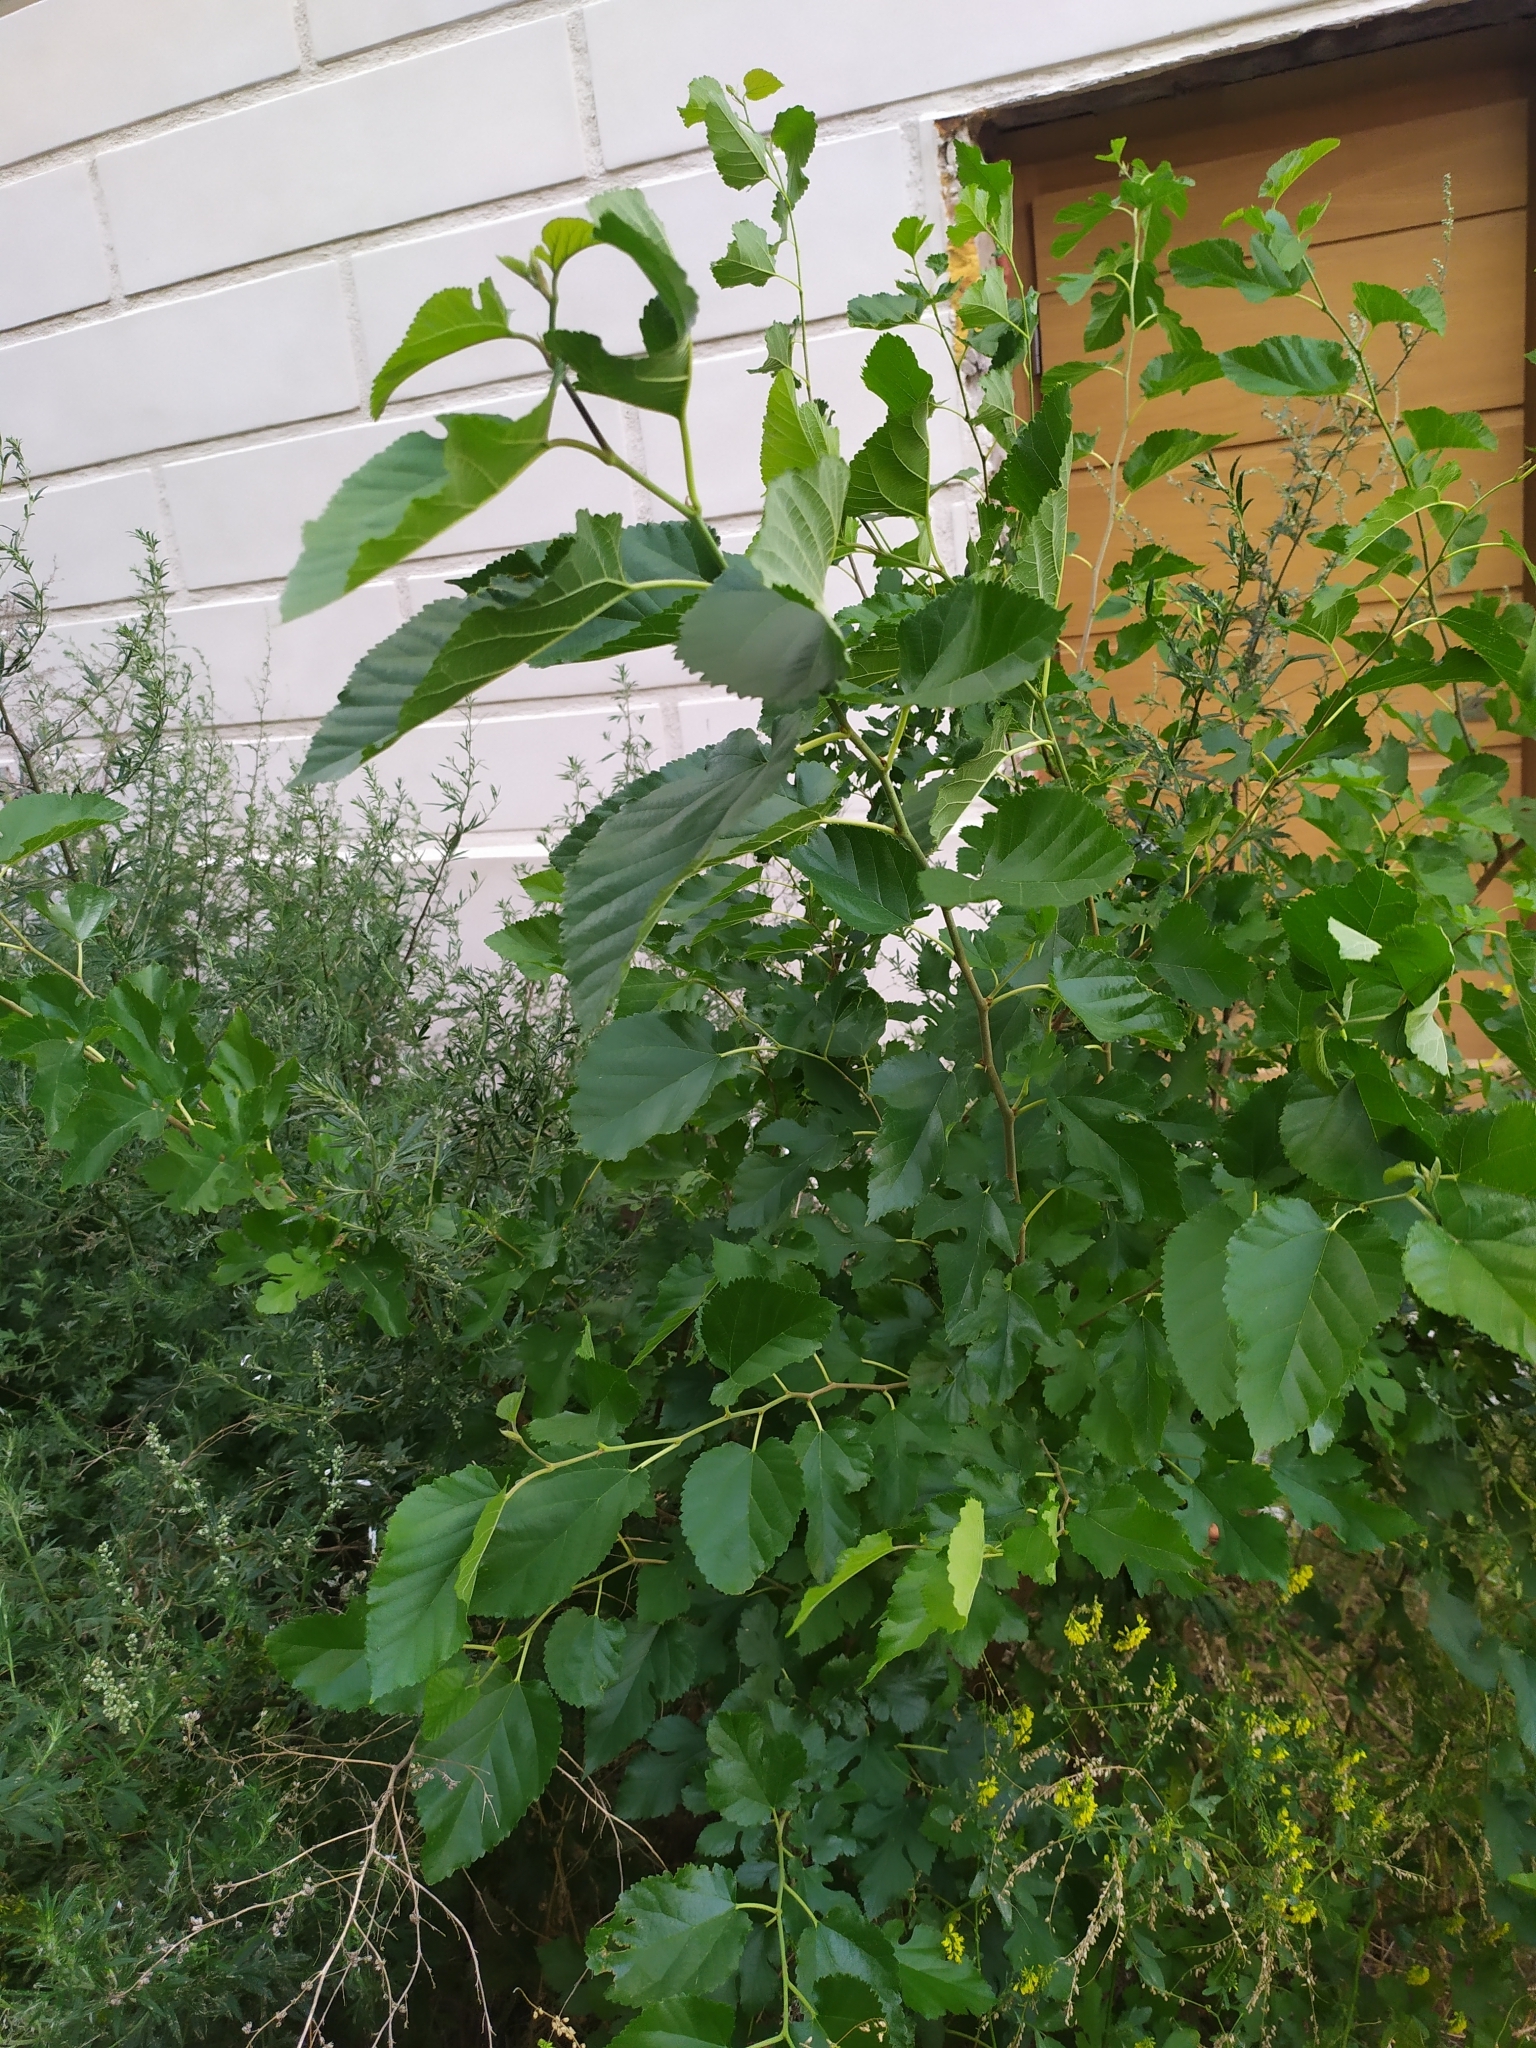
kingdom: Plantae
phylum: Tracheophyta
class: Magnoliopsida
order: Rosales
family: Moraceae
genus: Morus
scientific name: Morus alba
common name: White mulberry
